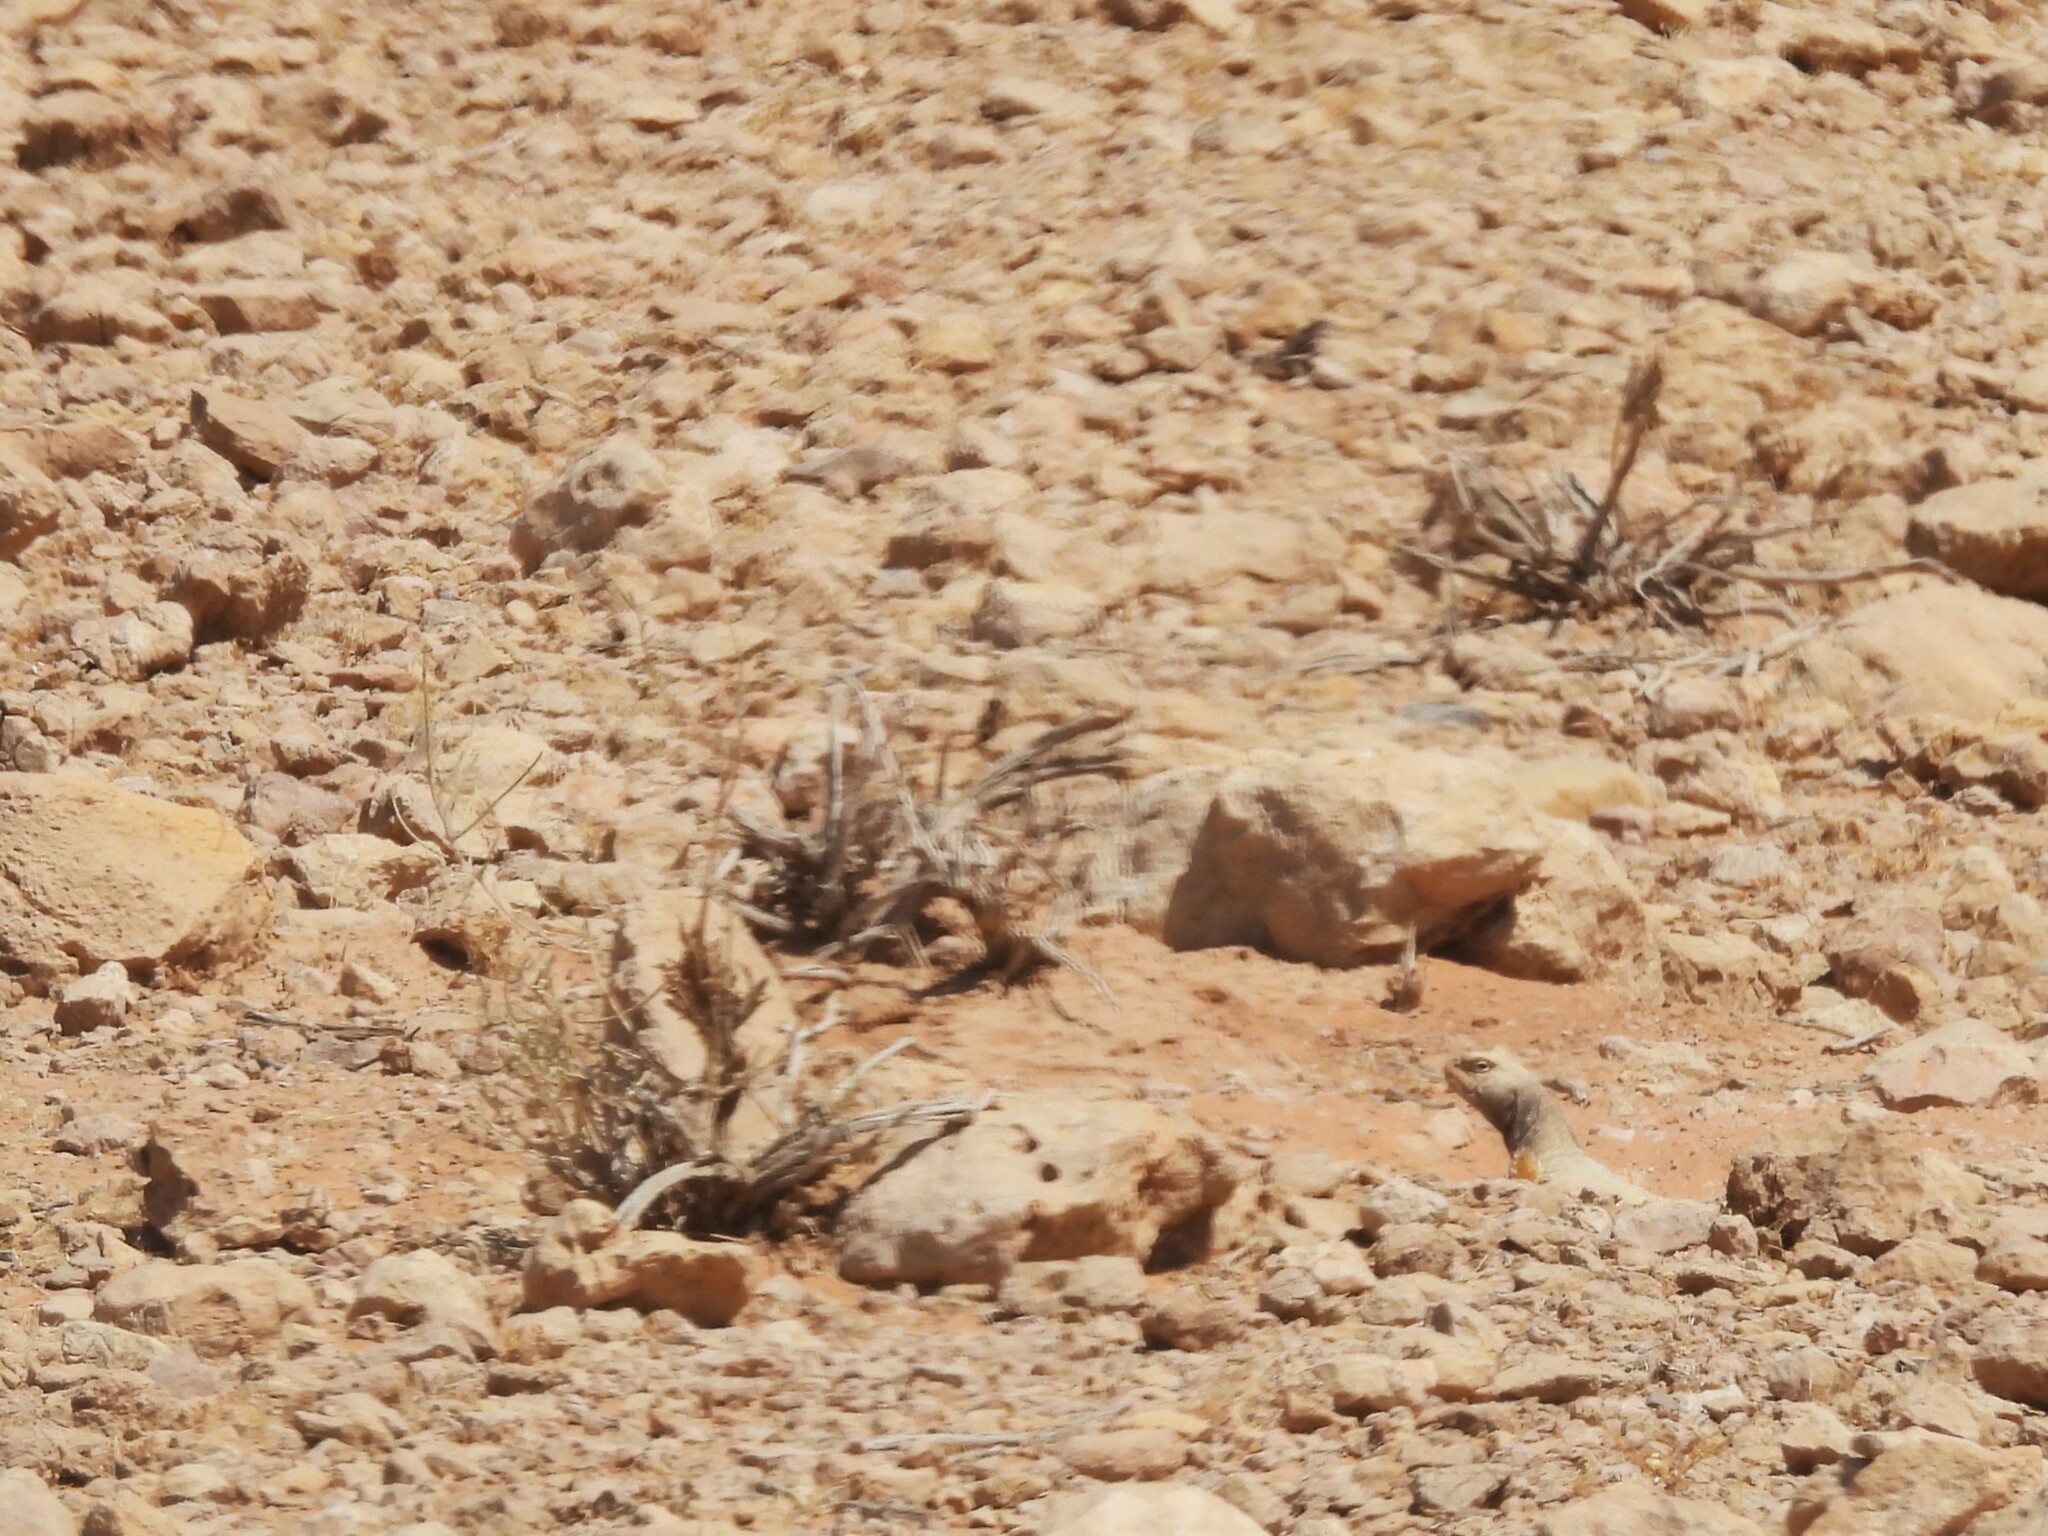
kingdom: Animalia
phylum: Chordata
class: Squamata
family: Agamidae
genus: Uromastyx
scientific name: Uromastyx aegyptia
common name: Egyptian mastigure
